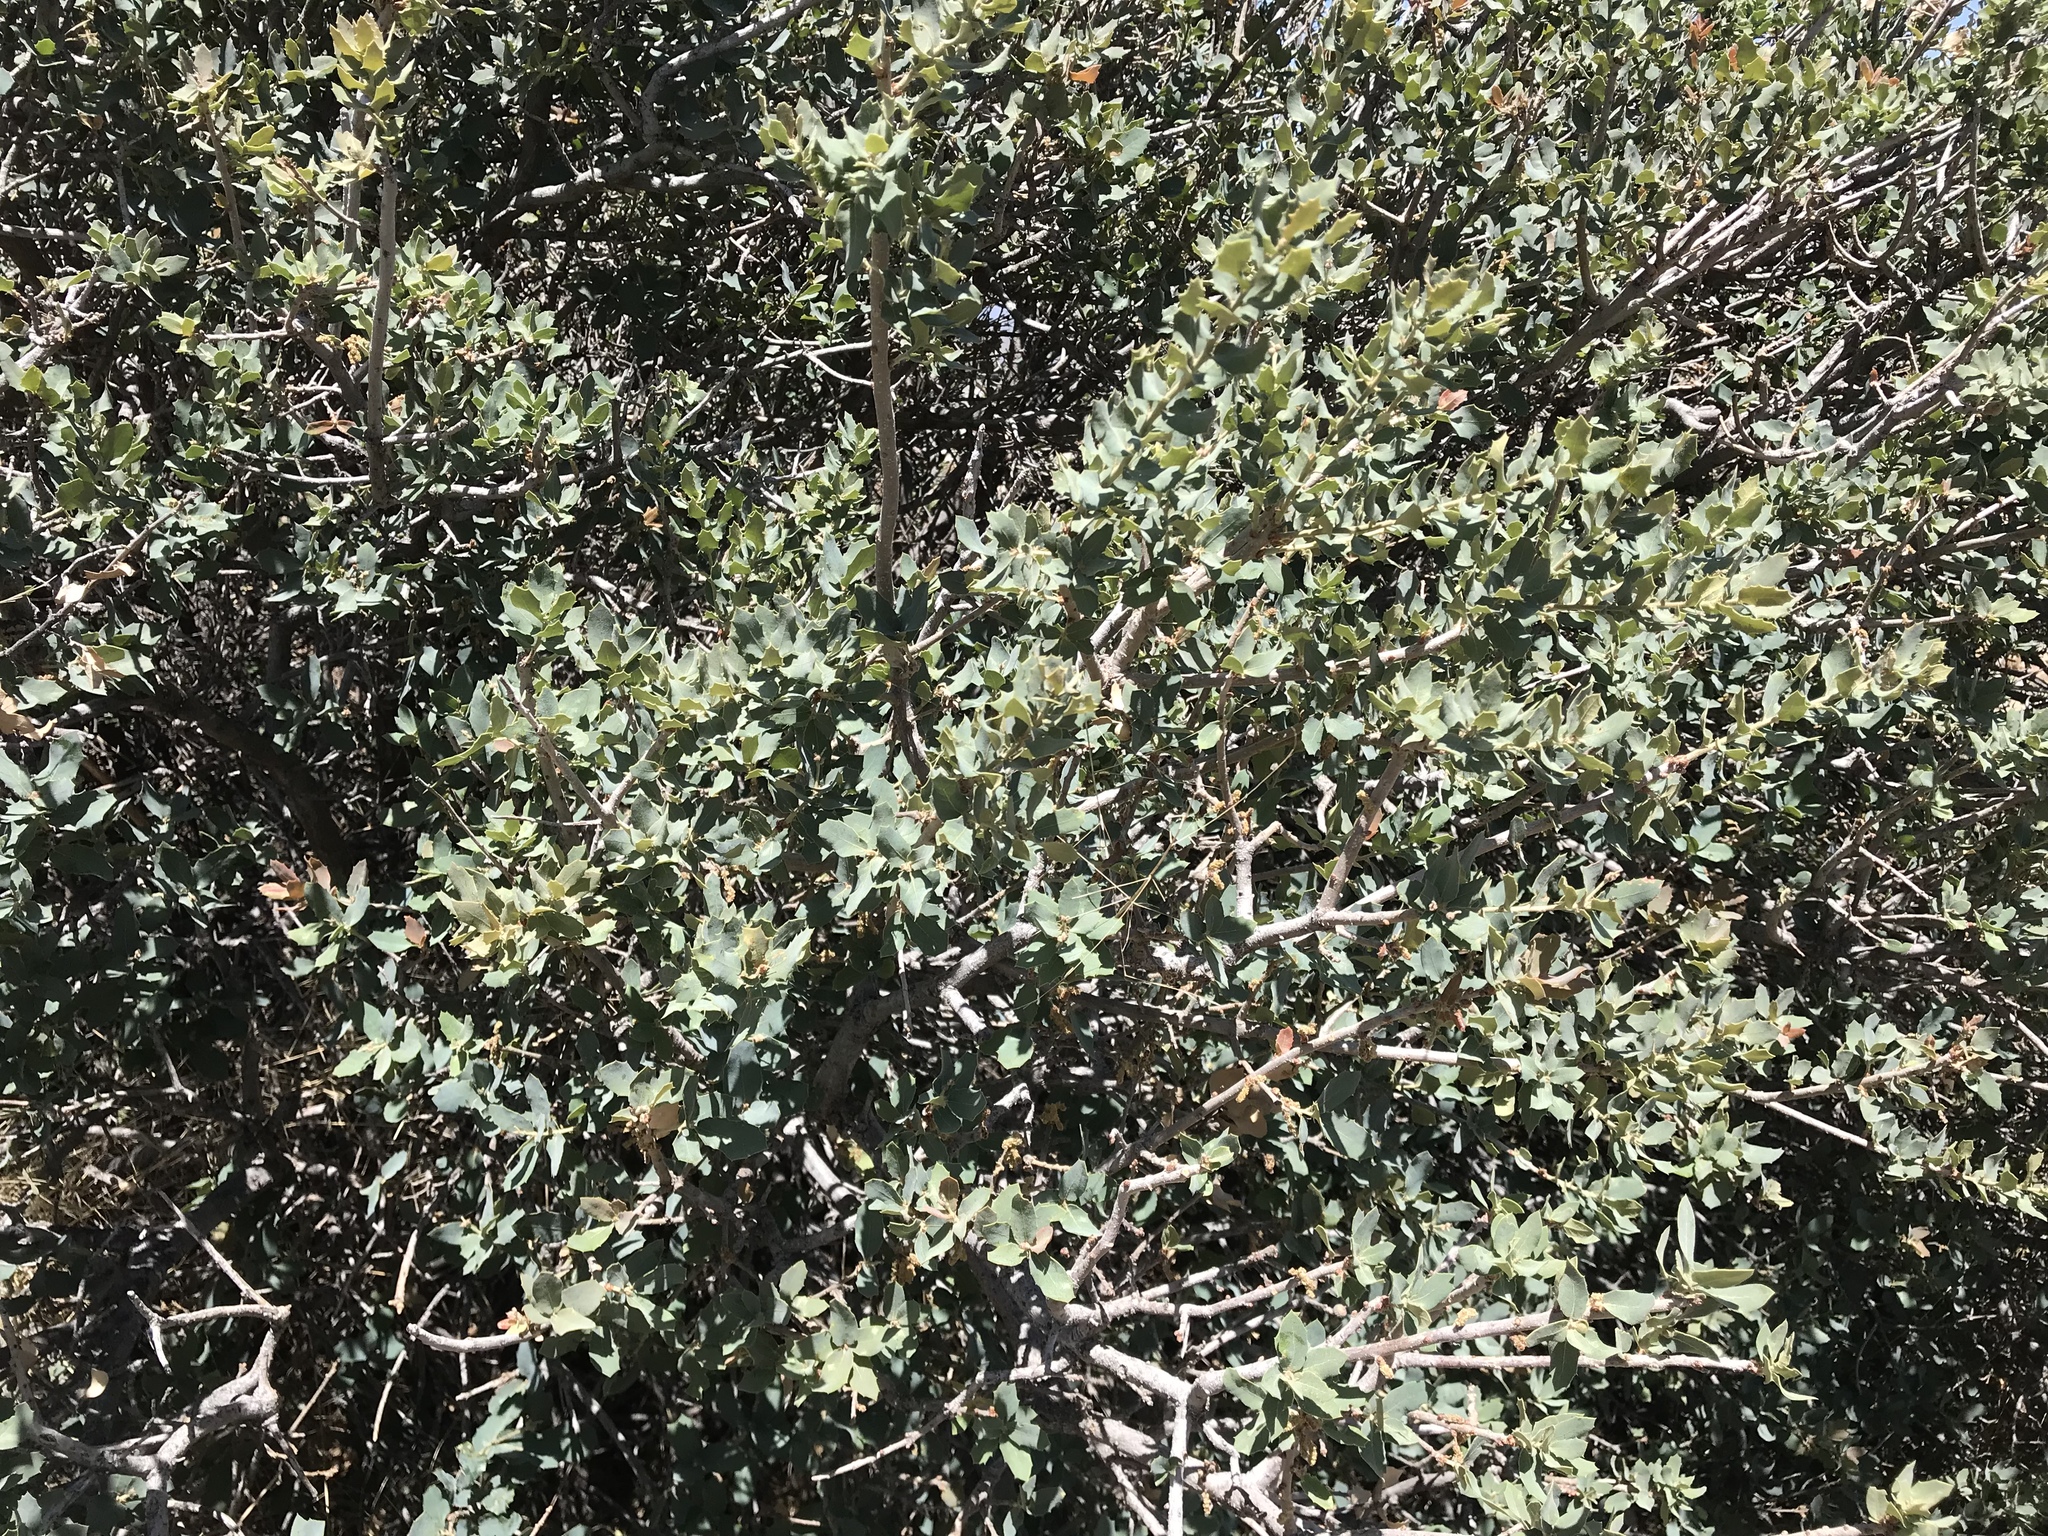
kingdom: Plantae
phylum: Tracheophyta
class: Magnoliopsida
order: Fagales
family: Fagaceae
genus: Quercus
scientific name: Quercus turbinella
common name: Sonoran scrub oak
